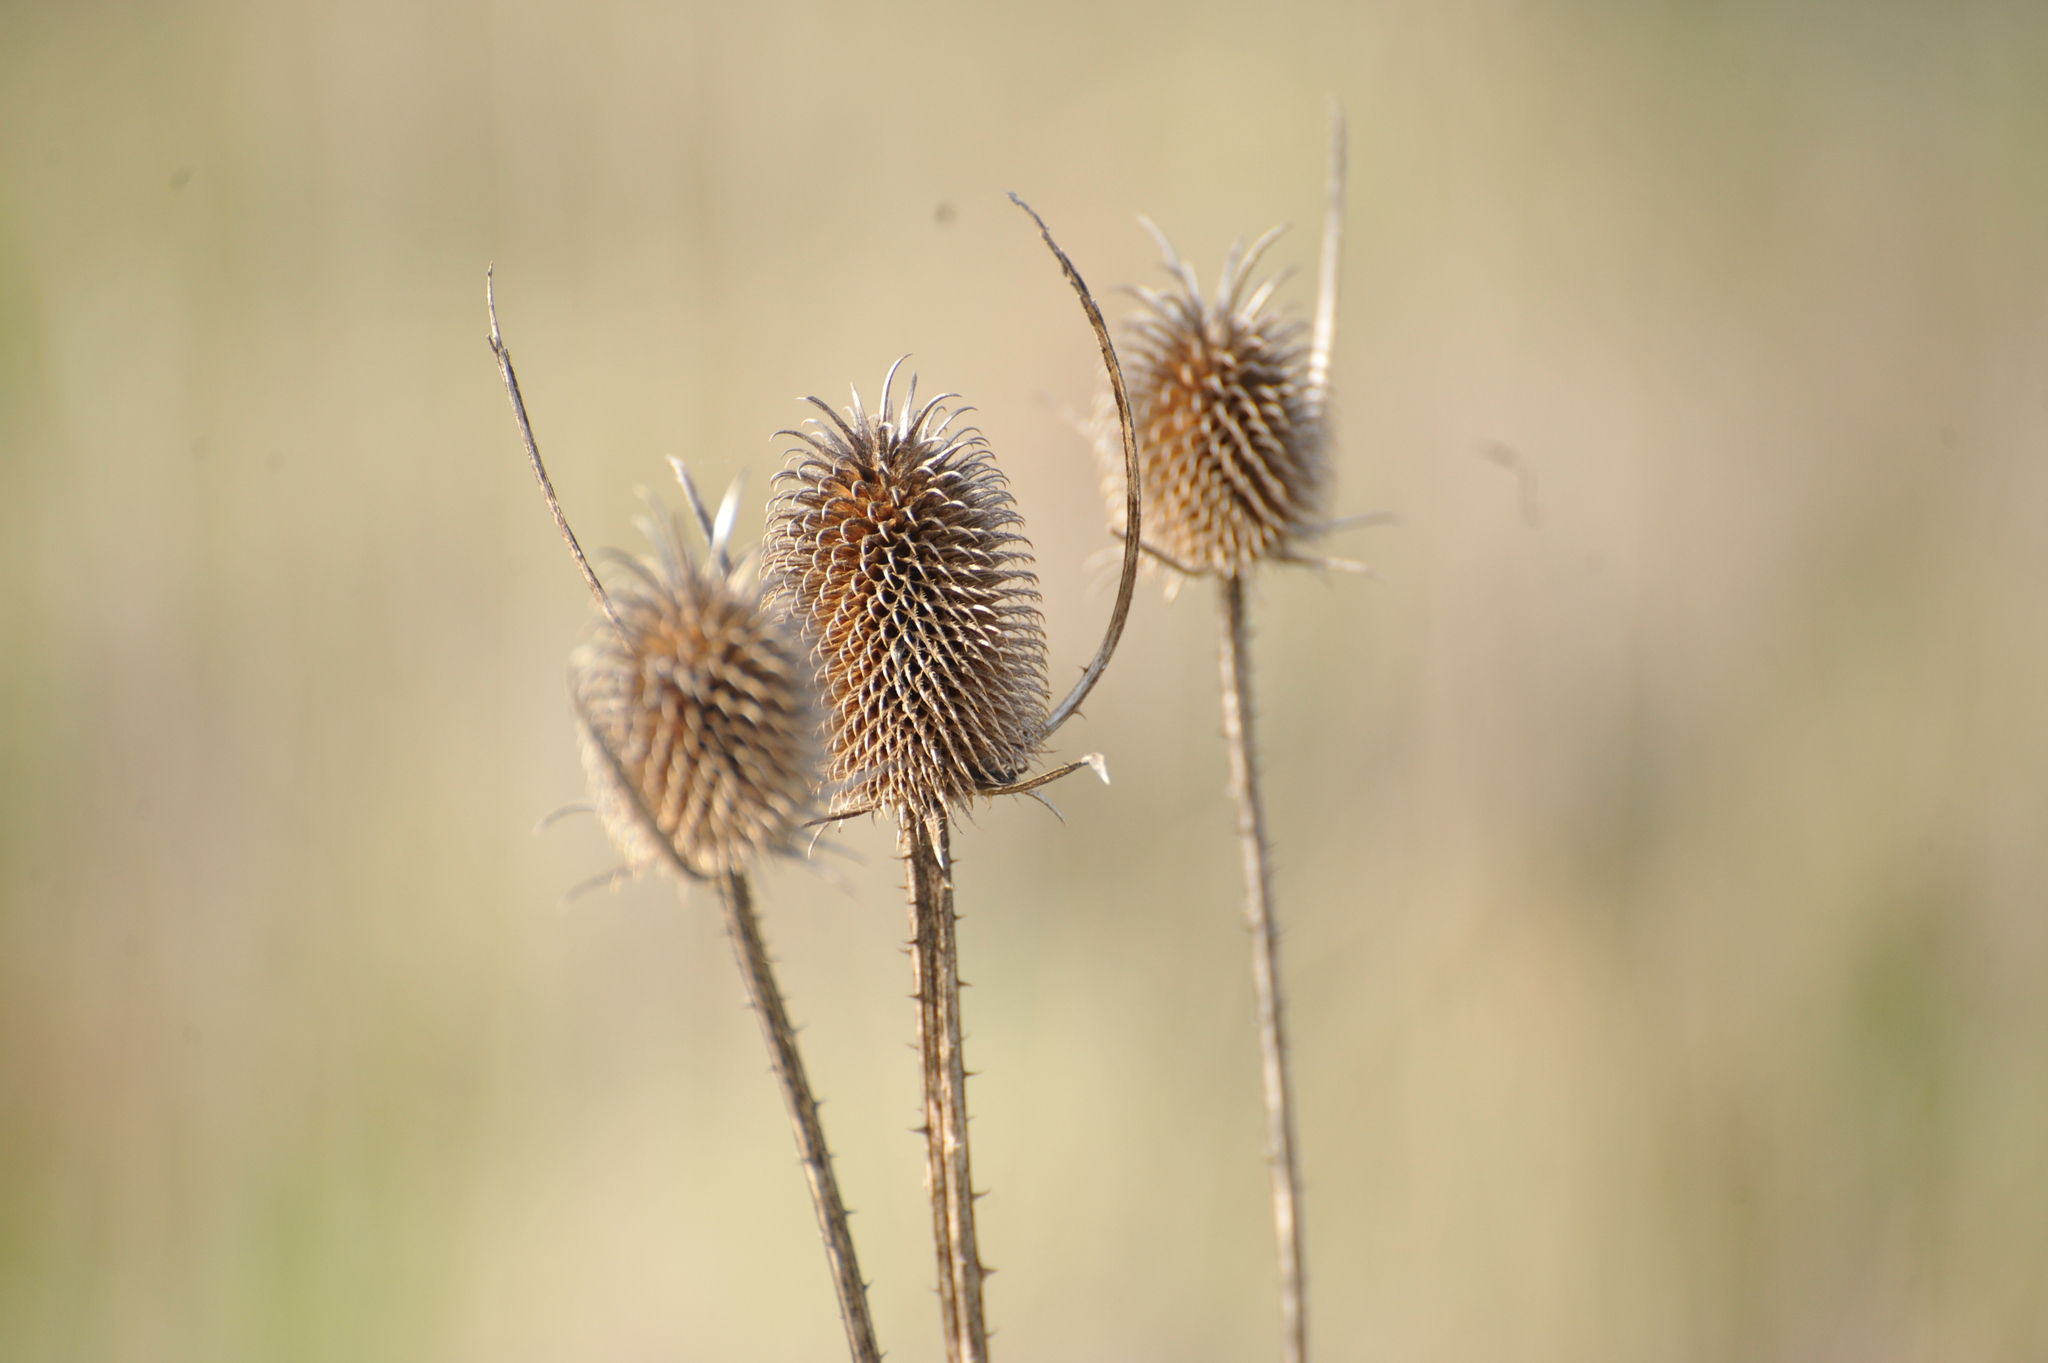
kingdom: Plantae
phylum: Tracheophyta
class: Magnoliopsida
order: Dipsacales
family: Caprifoliaceae
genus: Dipsacus
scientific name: Dipsacus sativus
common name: Fuller's teasel
